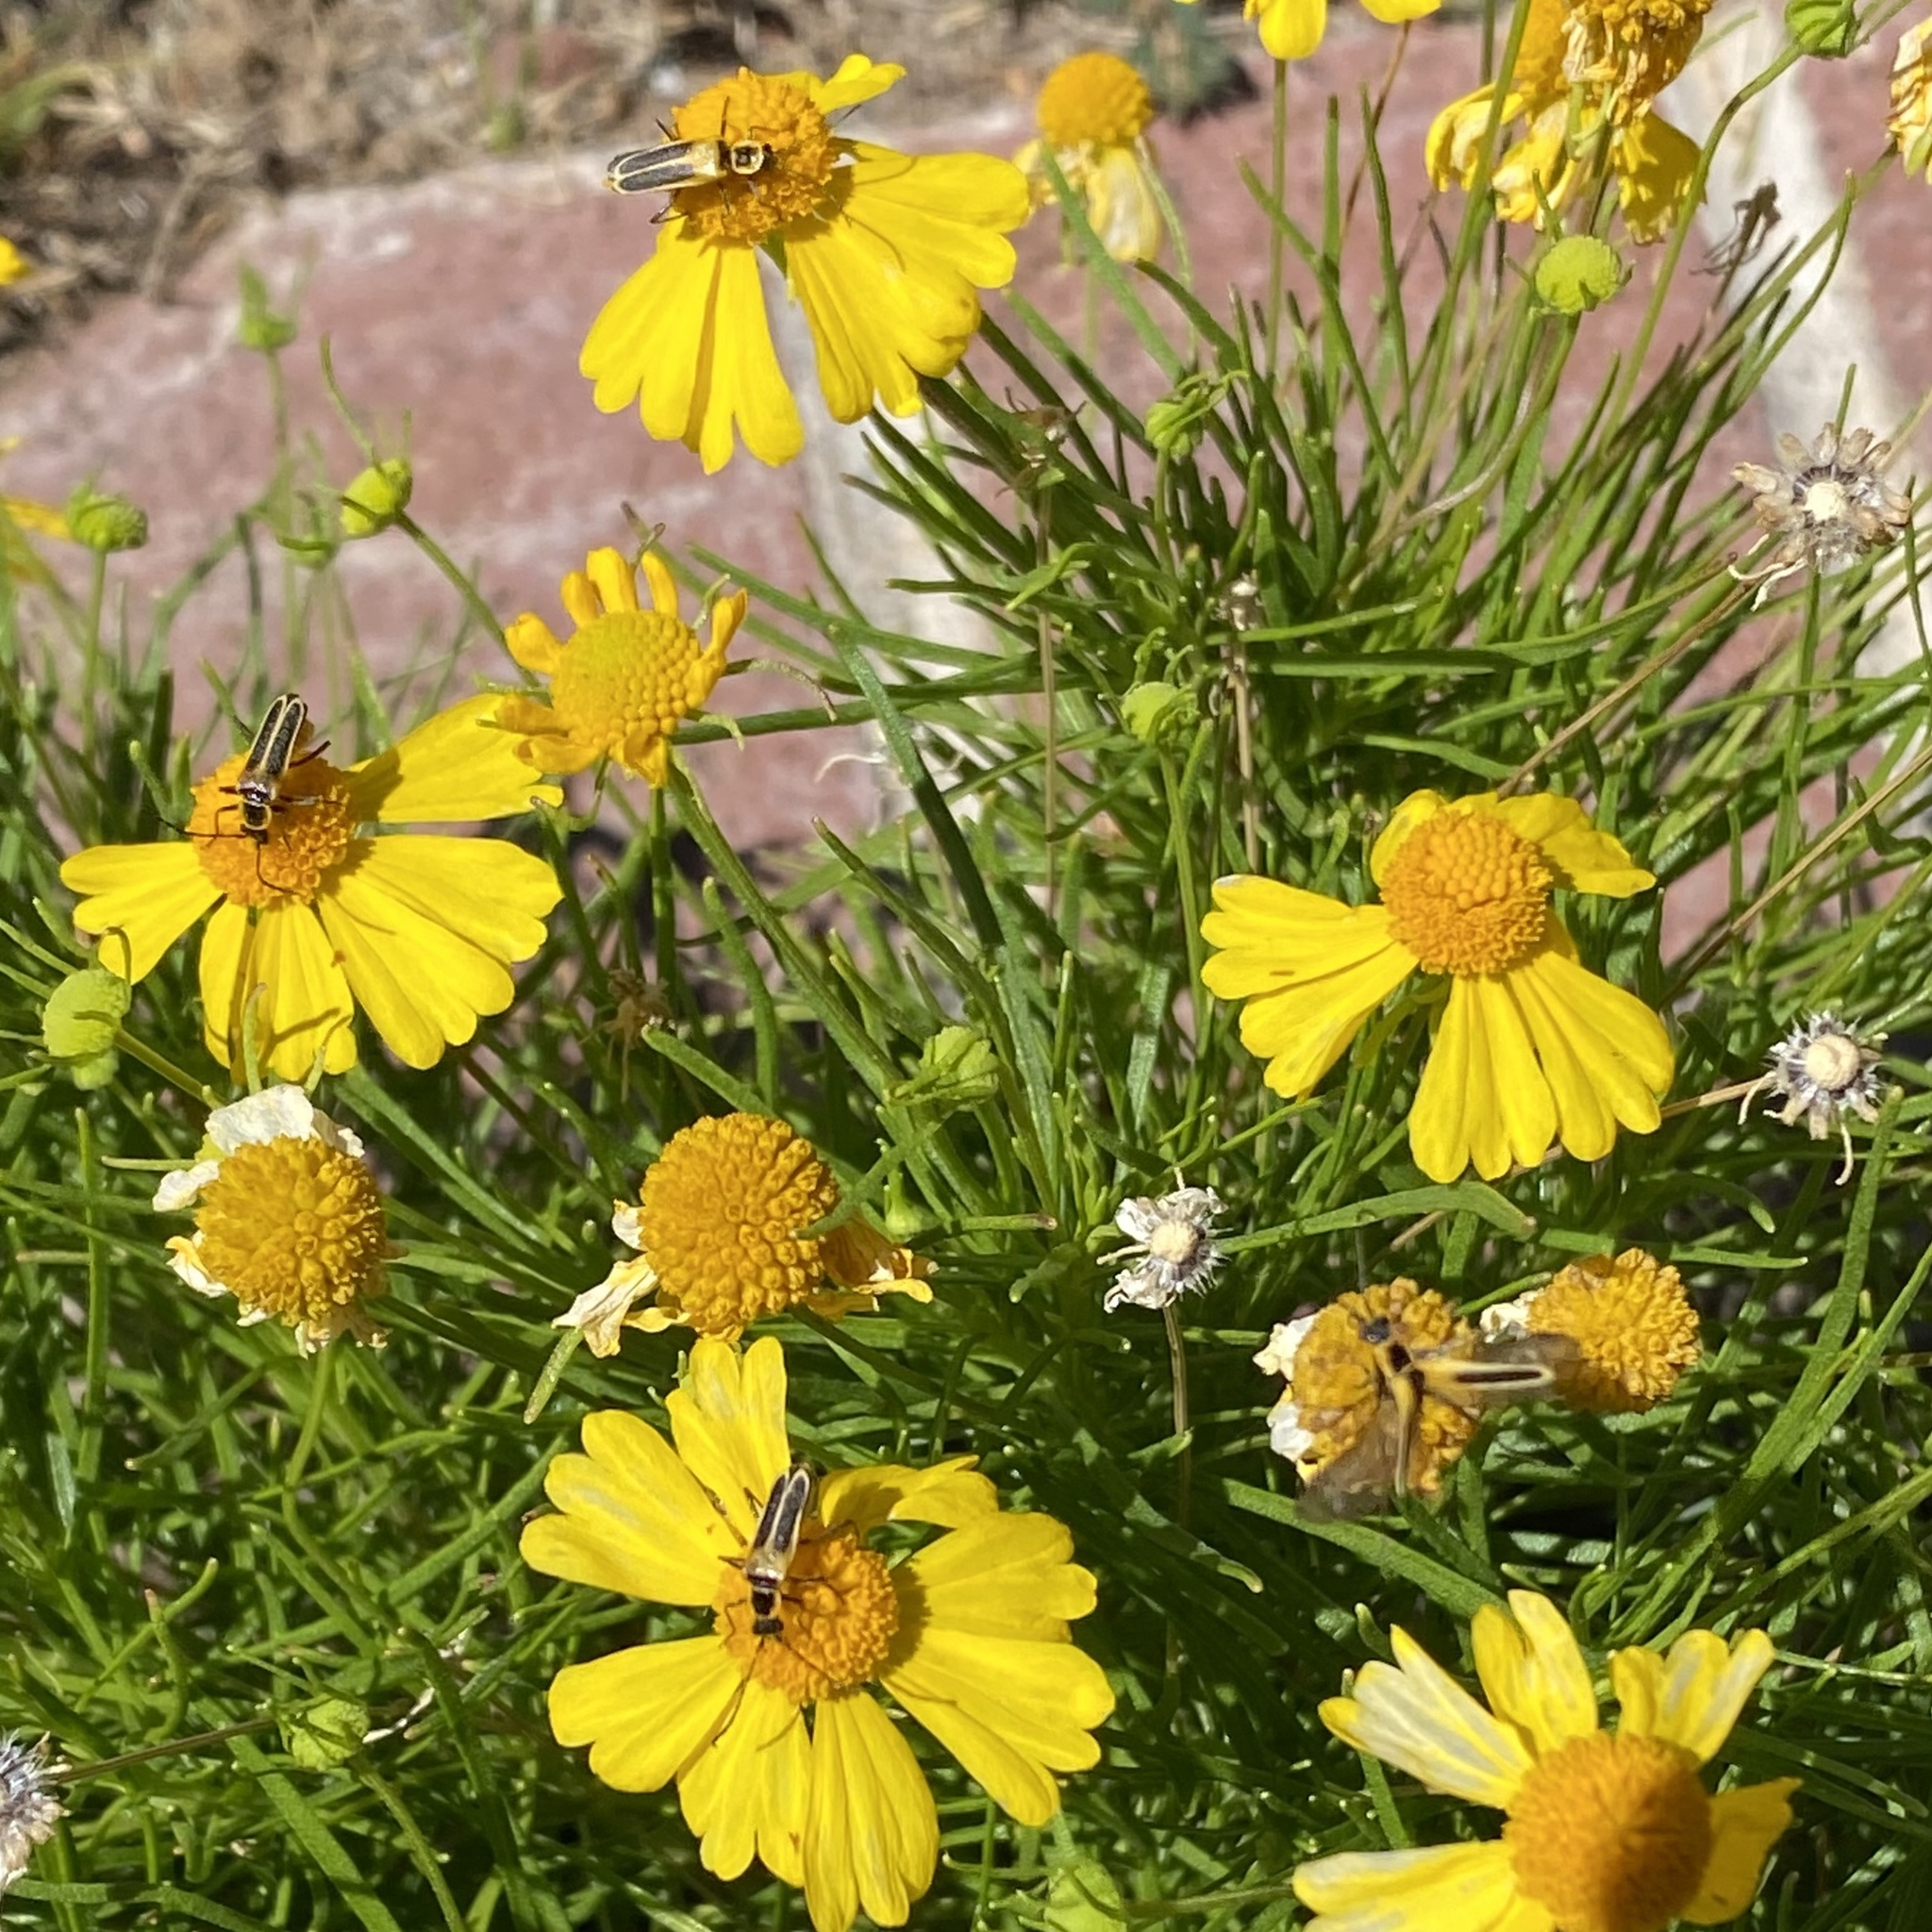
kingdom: Animalia
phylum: Arthropoda
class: Insecta
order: Coleoptera
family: Cantharidae
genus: Chauliognathus
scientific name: Chauliognathus lewisi
